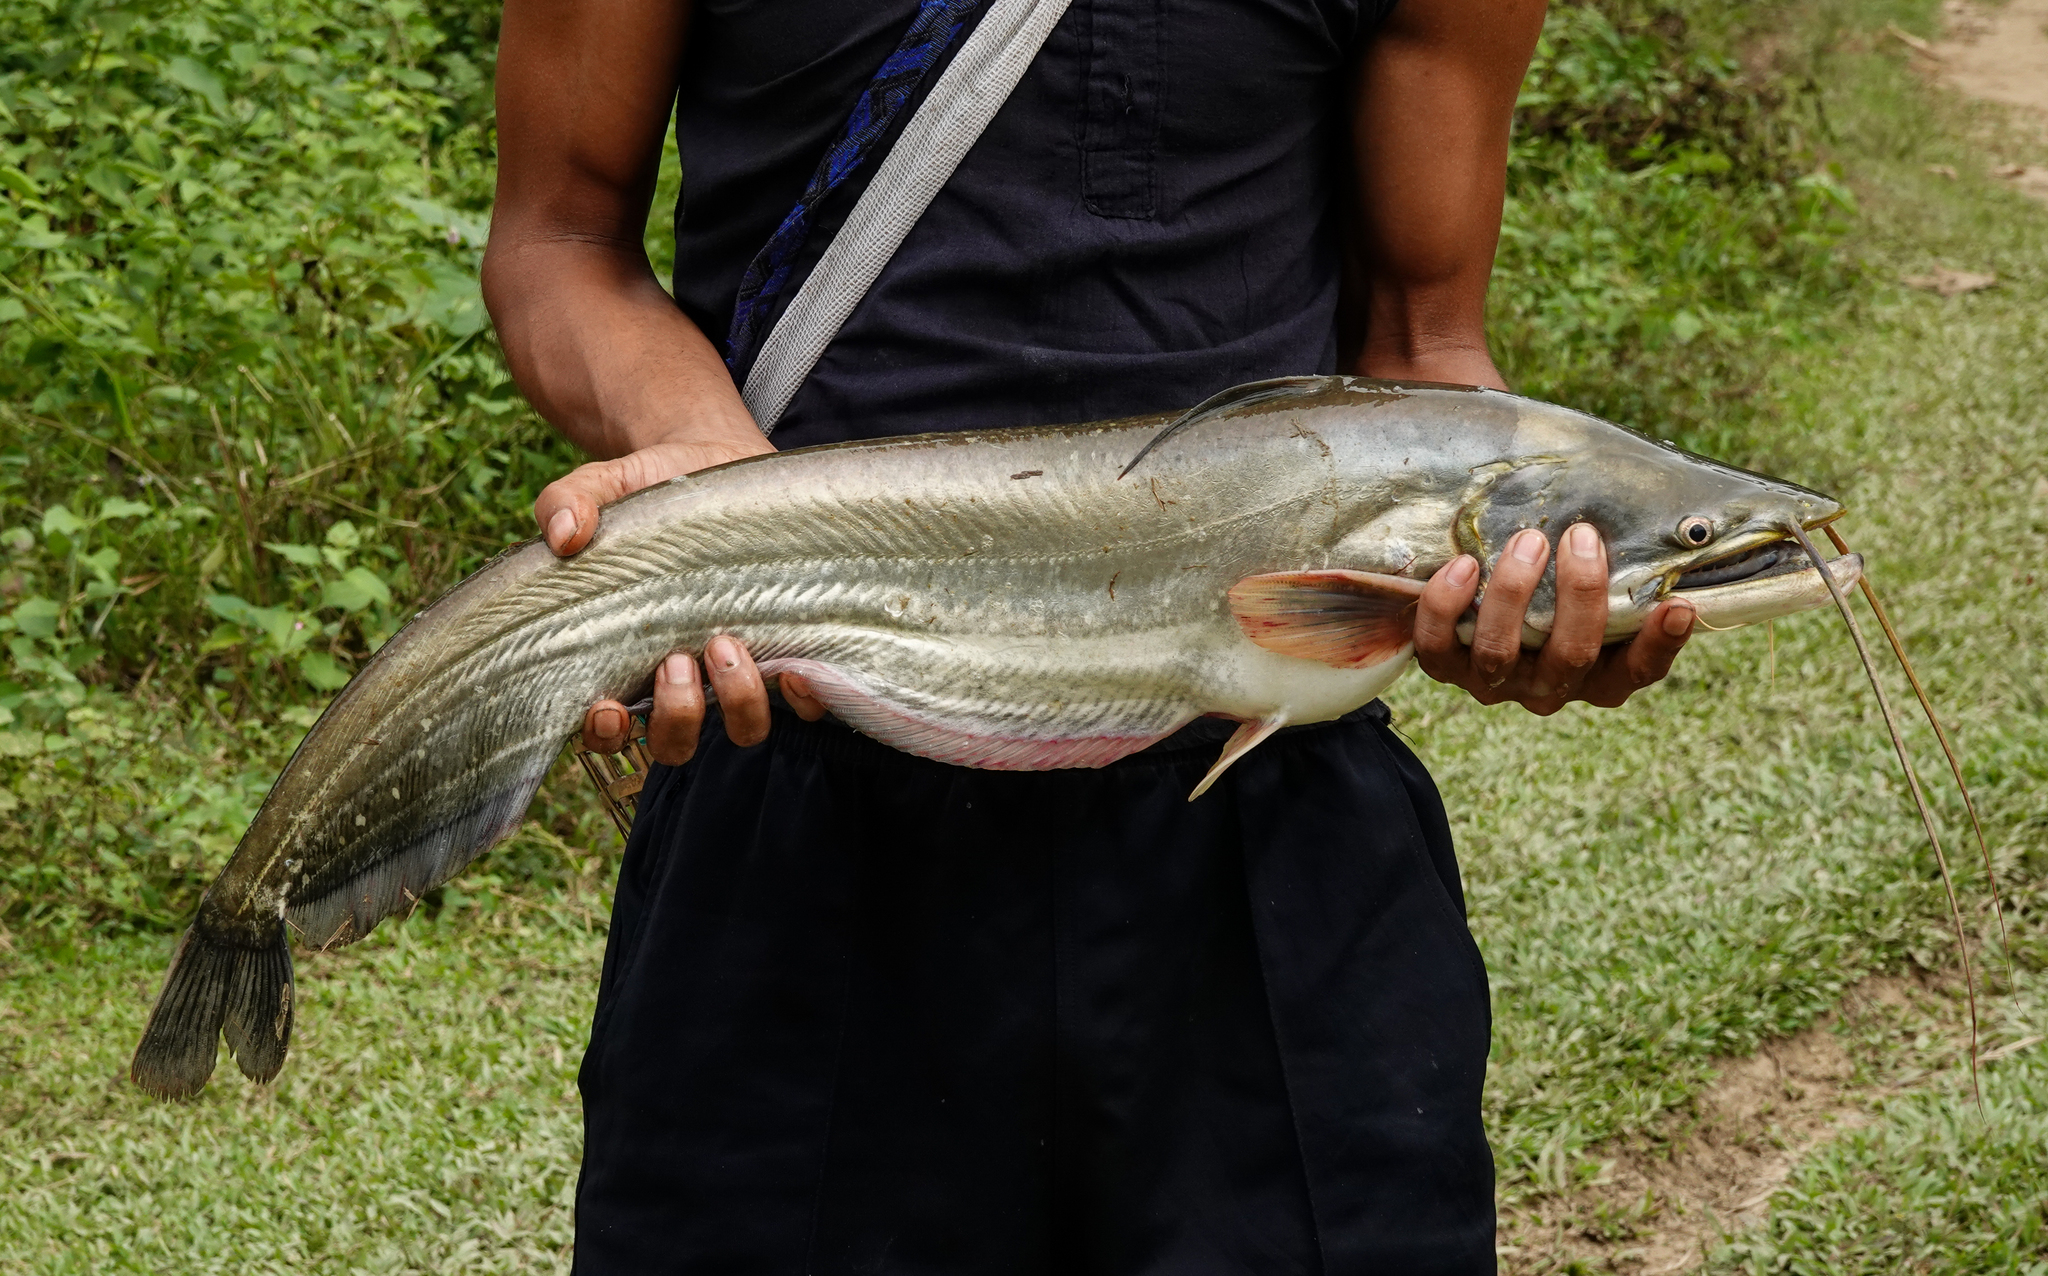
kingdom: Animalia
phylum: Chordata
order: Siluriformes
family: Siluridae
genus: Wallago
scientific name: Wallago attu
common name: Freshwater shark
